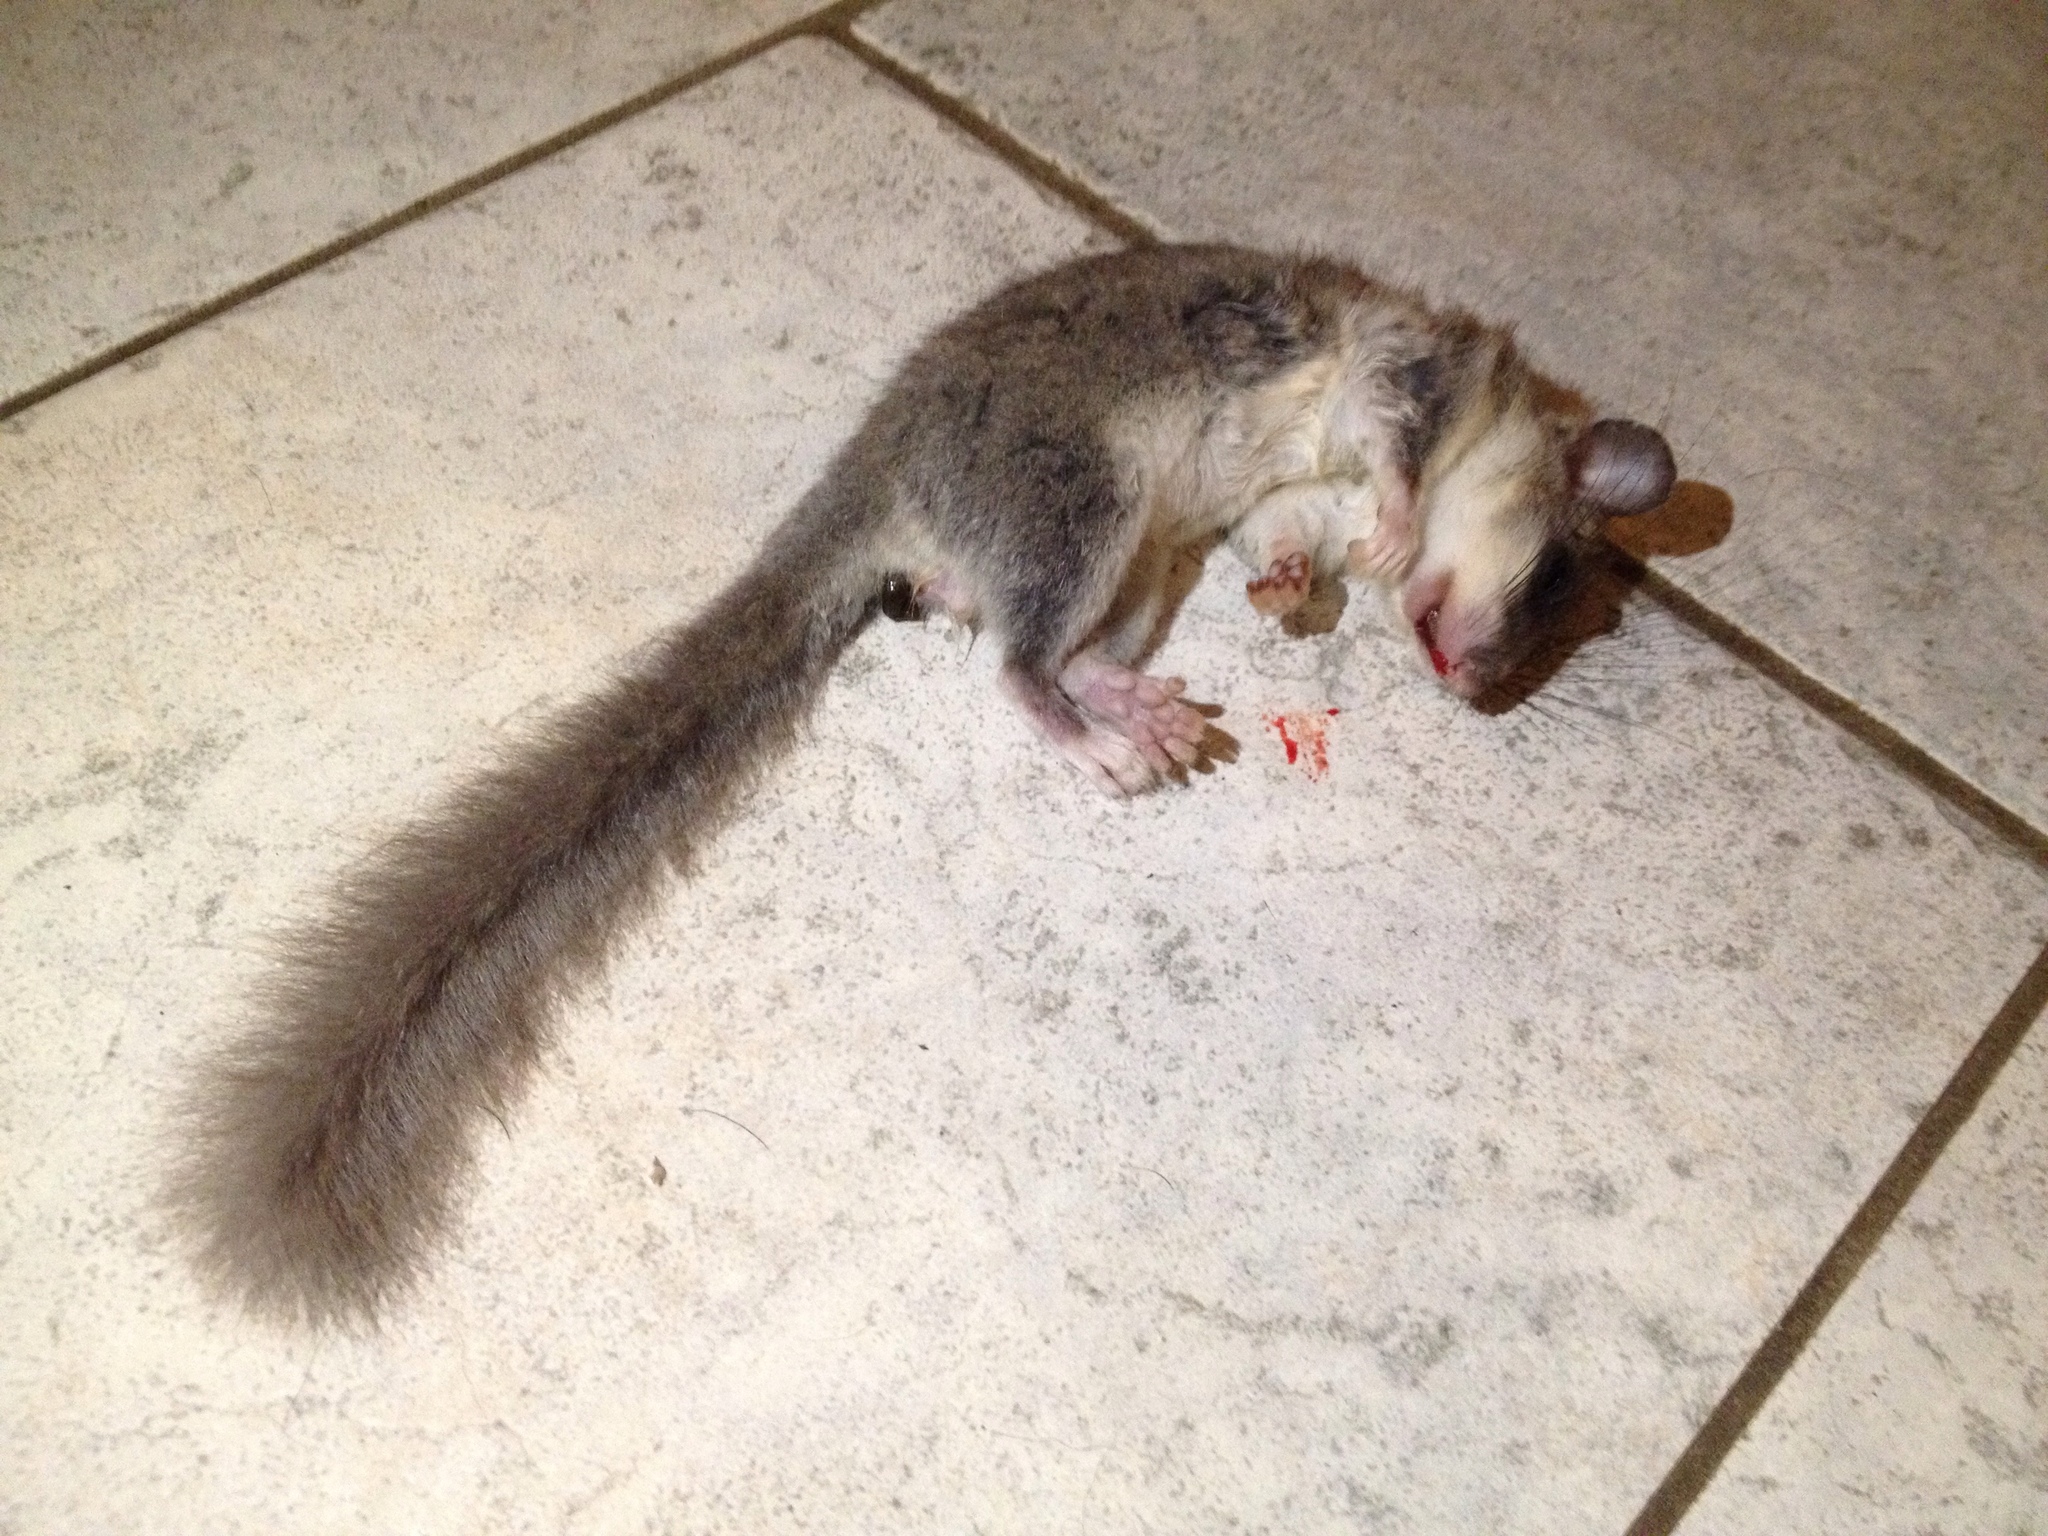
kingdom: Animalia
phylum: Chordata
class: Mammalia
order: Rodentia
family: Gliridae
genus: Glis
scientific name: Glis glis
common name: Fat dormouse
